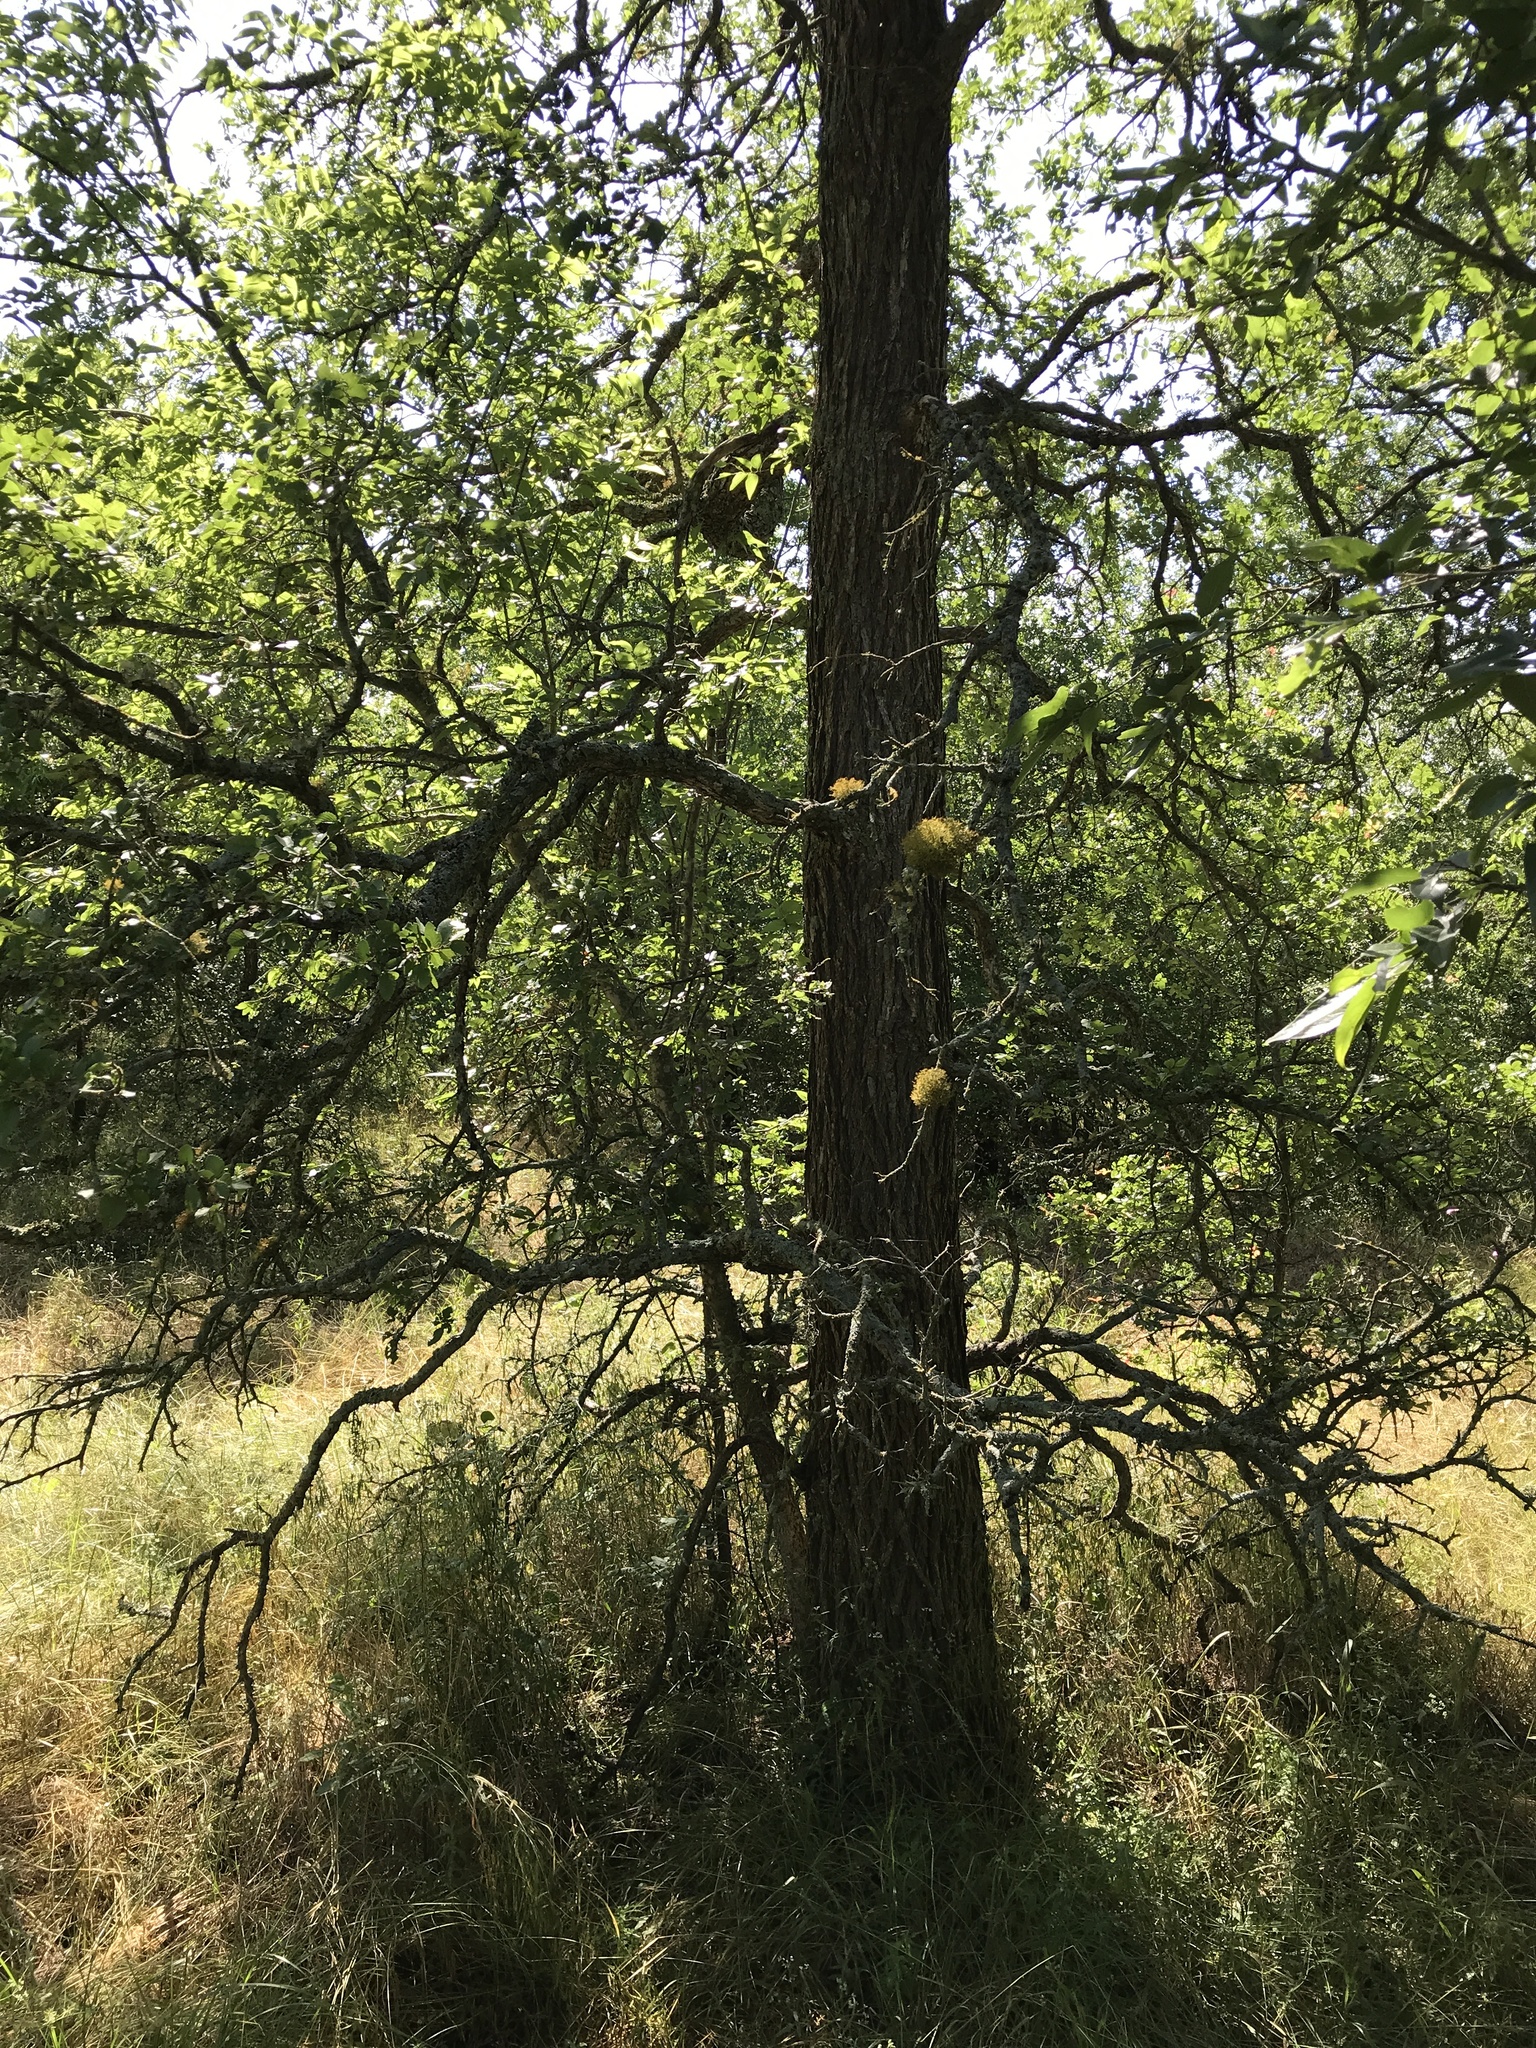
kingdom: Plantae
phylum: Tracheophyta
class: Magnoliopsida
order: Rosales
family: Ulmaceae
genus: Ulmus
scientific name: Ulmus crassifolia
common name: Basket elm
